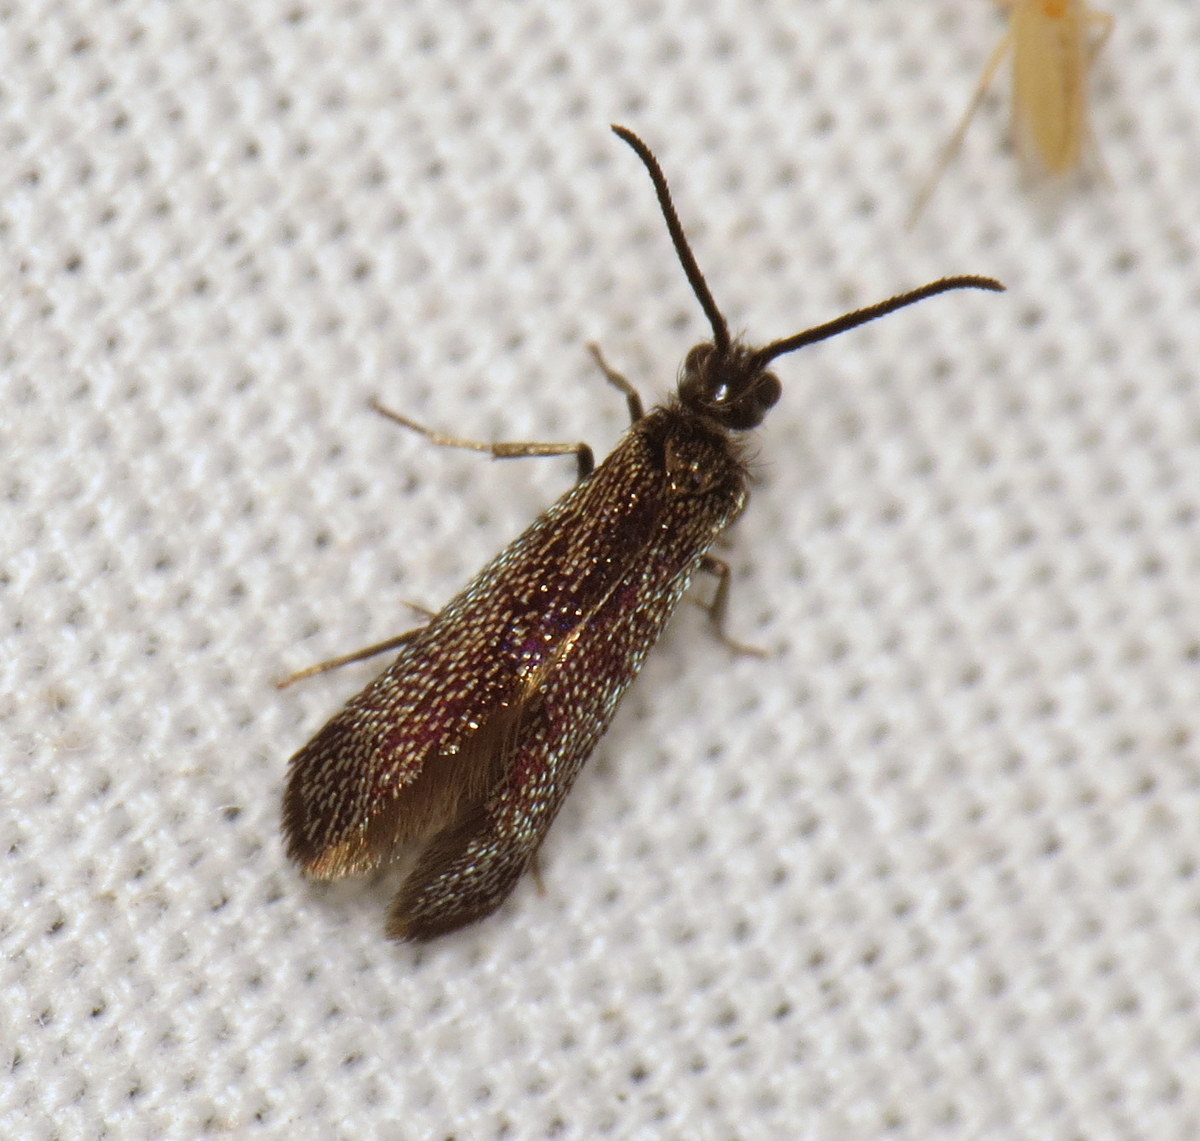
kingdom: Animalia
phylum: Arthropoda
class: Insecta
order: Lepidoptera
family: Eriocraniidae
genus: Eriocraniella
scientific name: Eriocraniella platyptera
